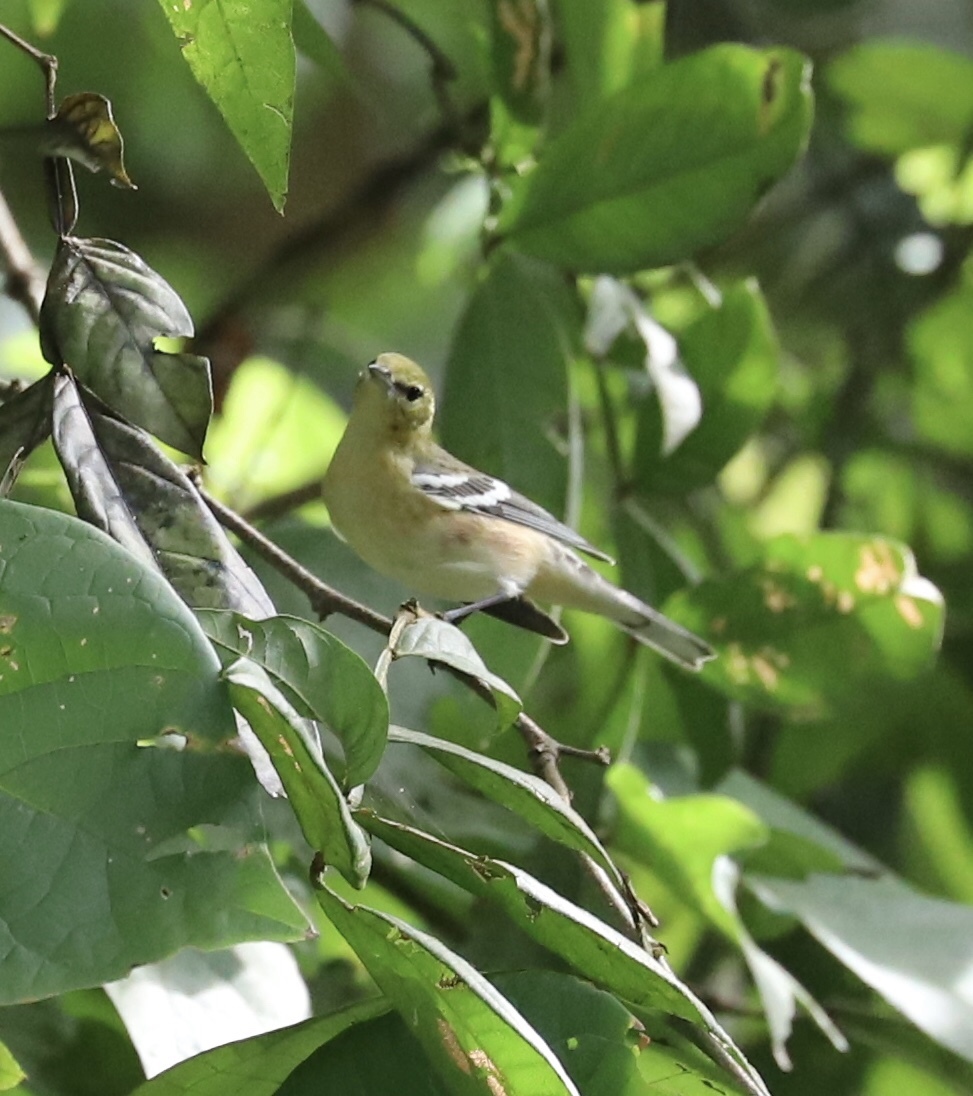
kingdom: Animalia
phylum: Chordata
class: Aves
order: Passeriformes
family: Parulidae
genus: Setophaga
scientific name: Setophaga castanea
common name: Bay-breasted warbler
